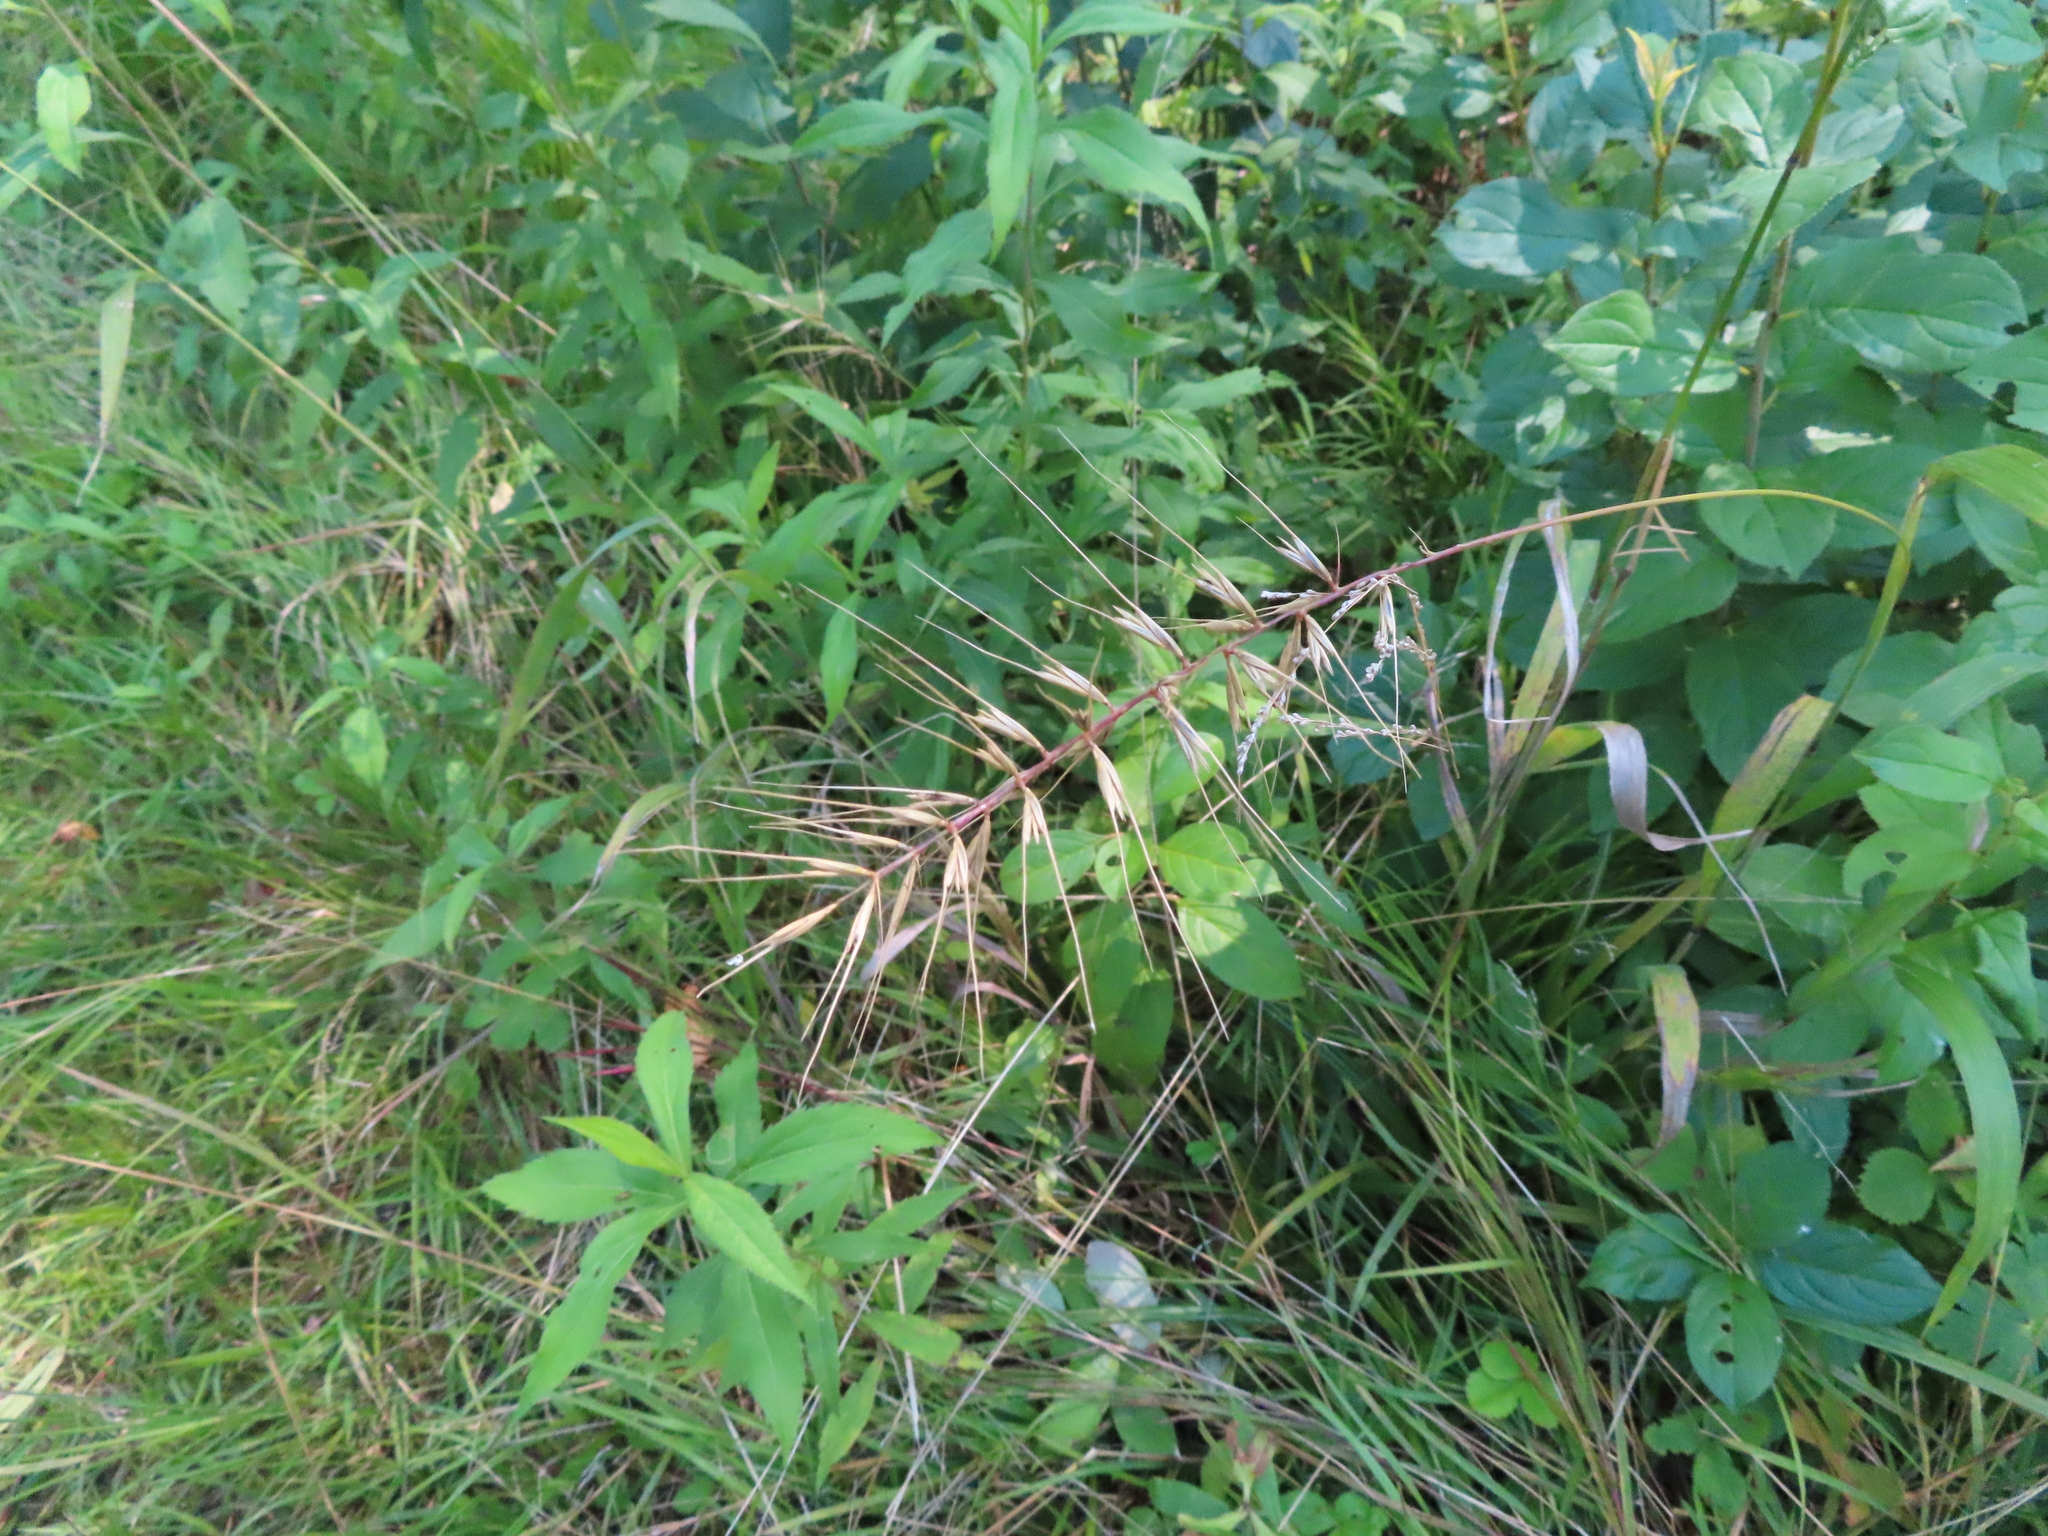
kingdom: Plantae
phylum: Tracheophyta
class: Liliopsida
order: Poales
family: Poaceae
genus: Elymus
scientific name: Elymus hystrix
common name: Bottlebrush grass
